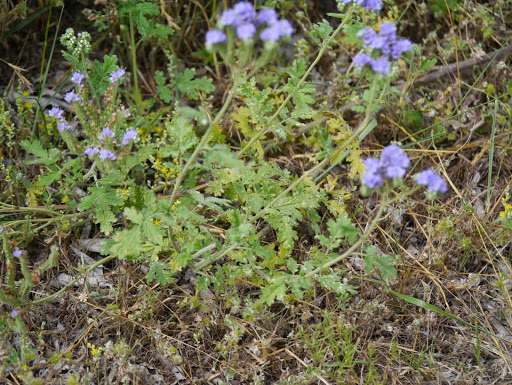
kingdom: Plantae
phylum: Tracheophyta
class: Magnoliopsida
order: Boraginales
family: Hydrophyllaceae
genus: Phacelia
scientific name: Phacelia congesta
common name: Blue curls
